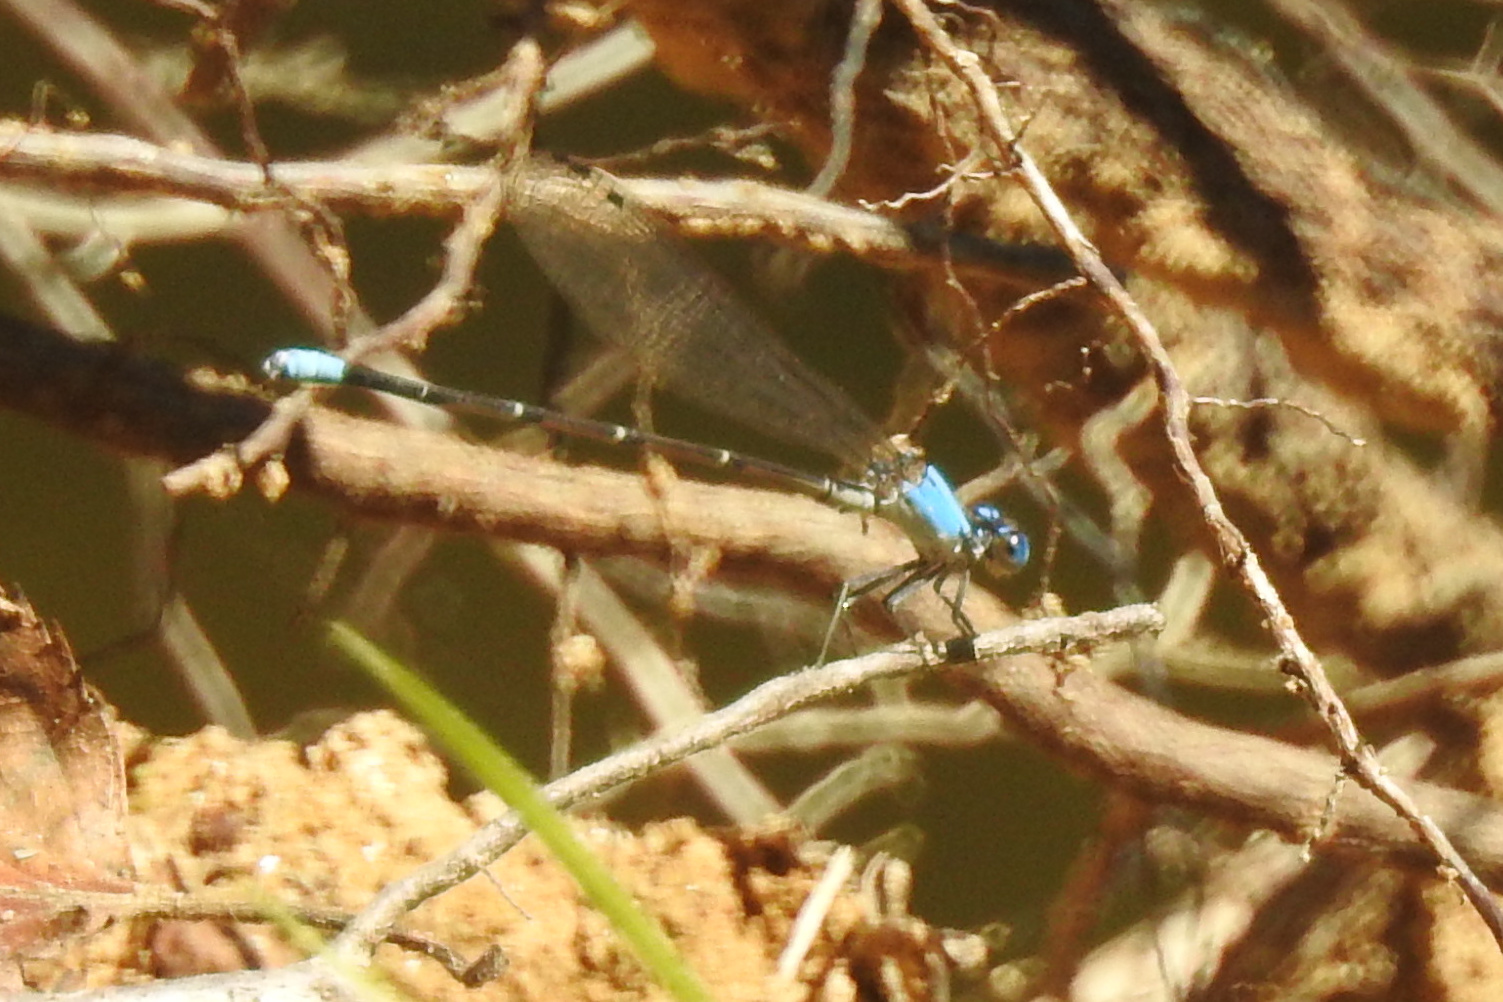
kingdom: Animalia
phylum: Arthropoda
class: Insecta
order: Odonata
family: Coenagrionidae
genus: Argia
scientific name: Argia apicalis
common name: Blue-fronted dancer
